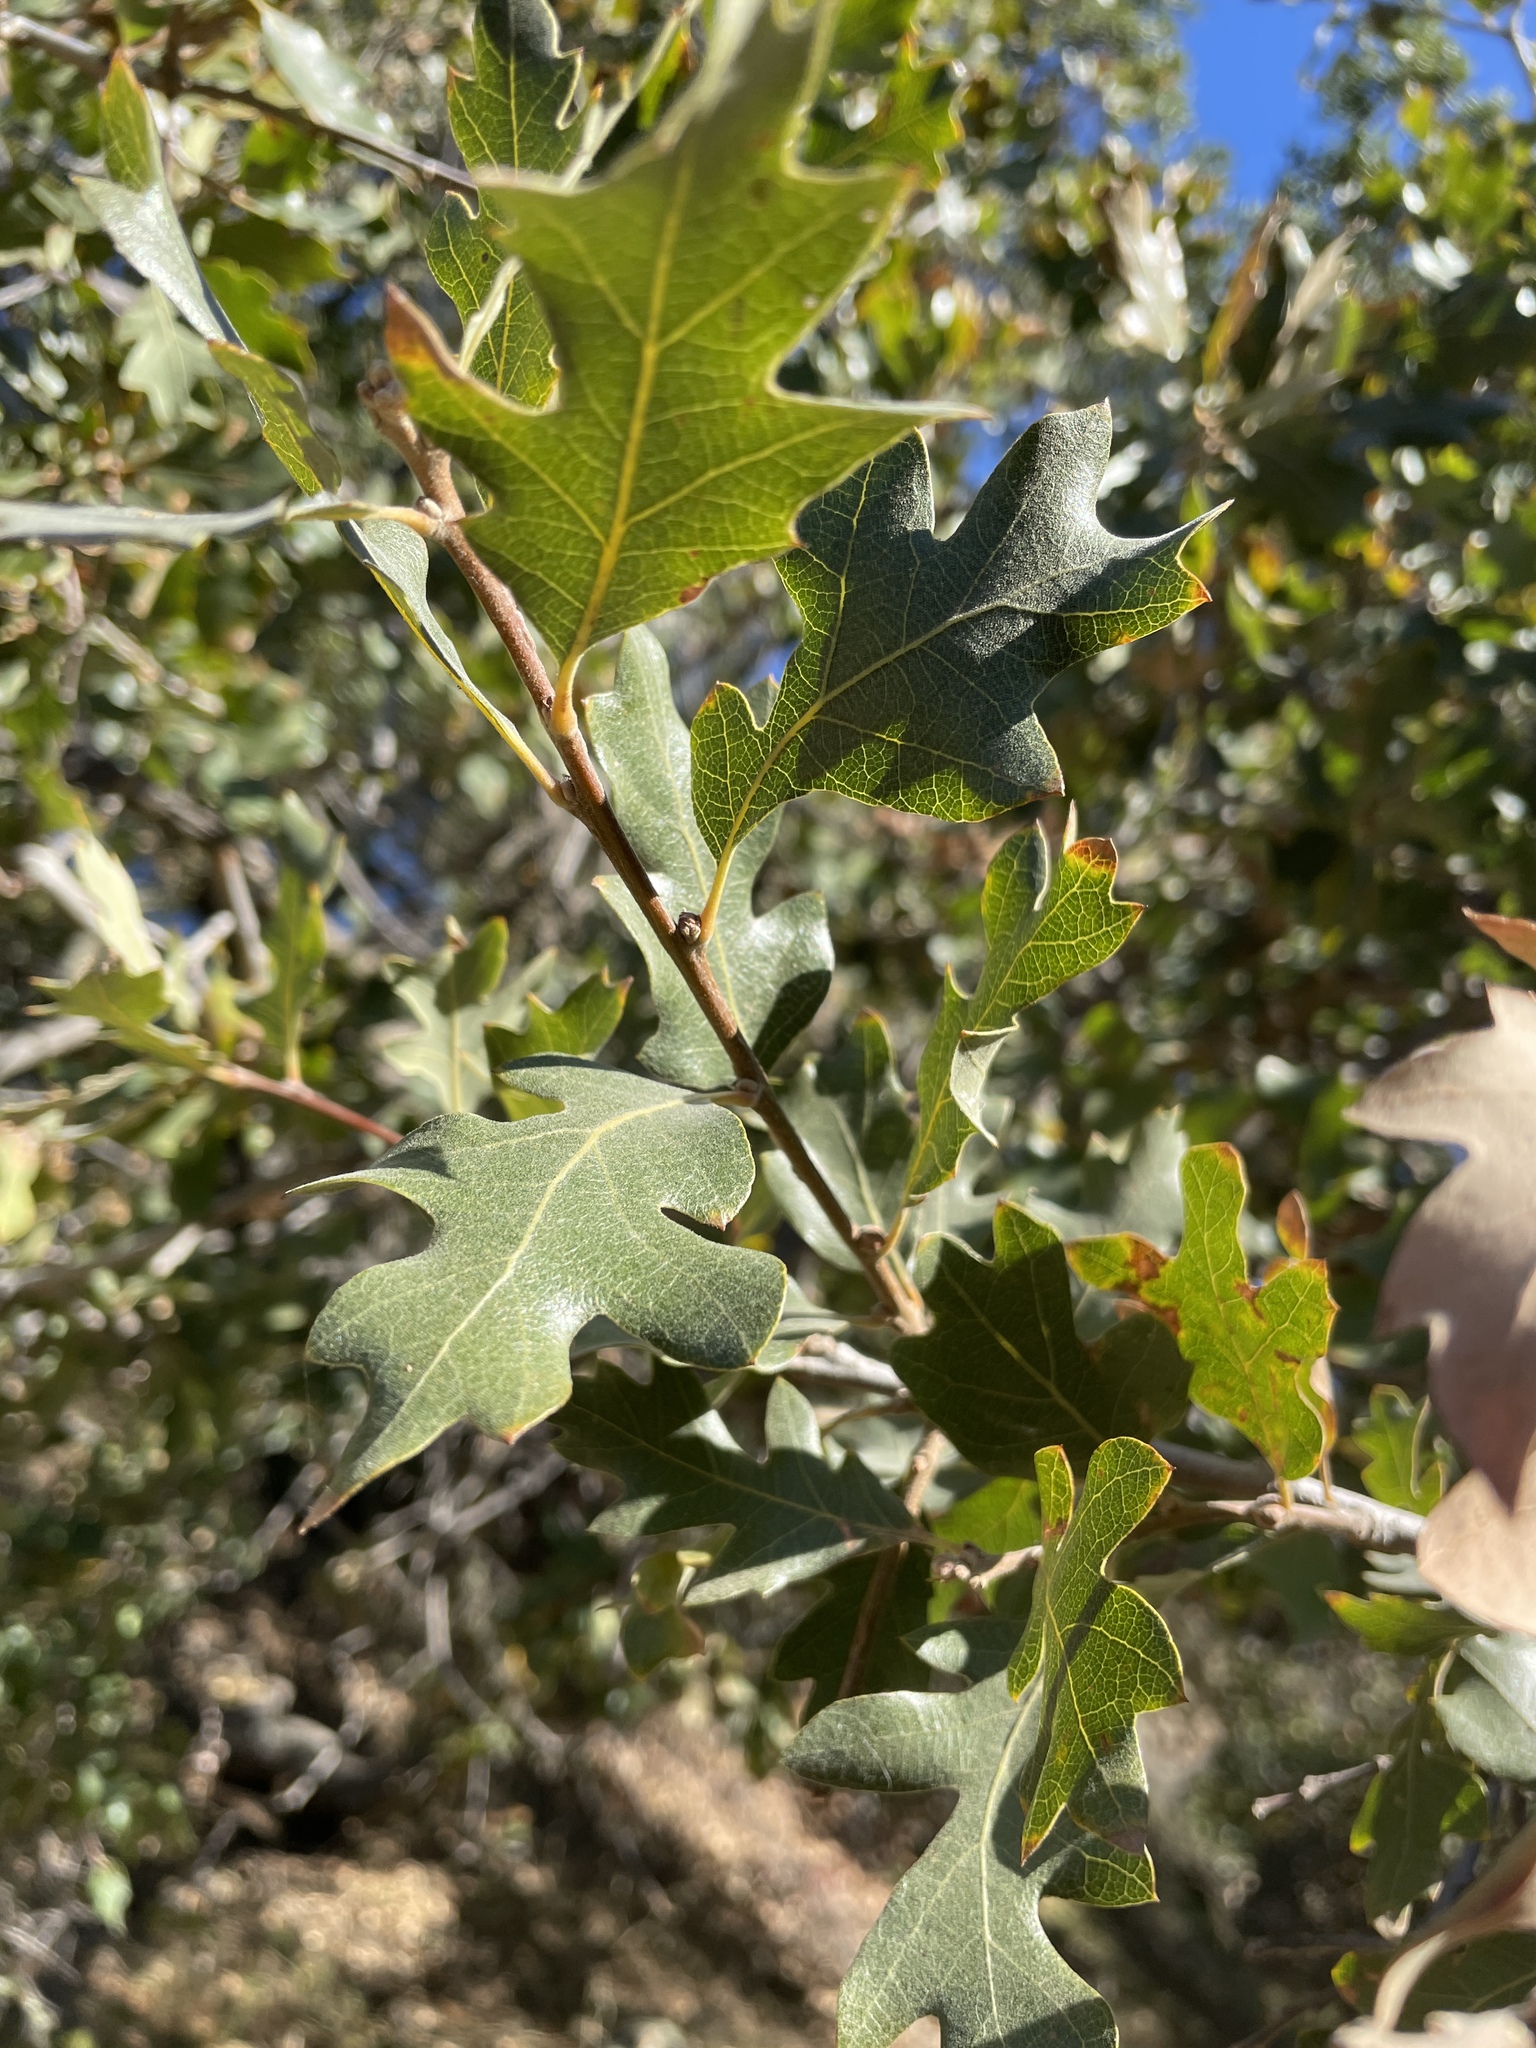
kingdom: Plantae
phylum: Tracheophyta
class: Magnoliopsida
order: Fagales
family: Fagaceae
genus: Quercus
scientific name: Quercus jolonensis
